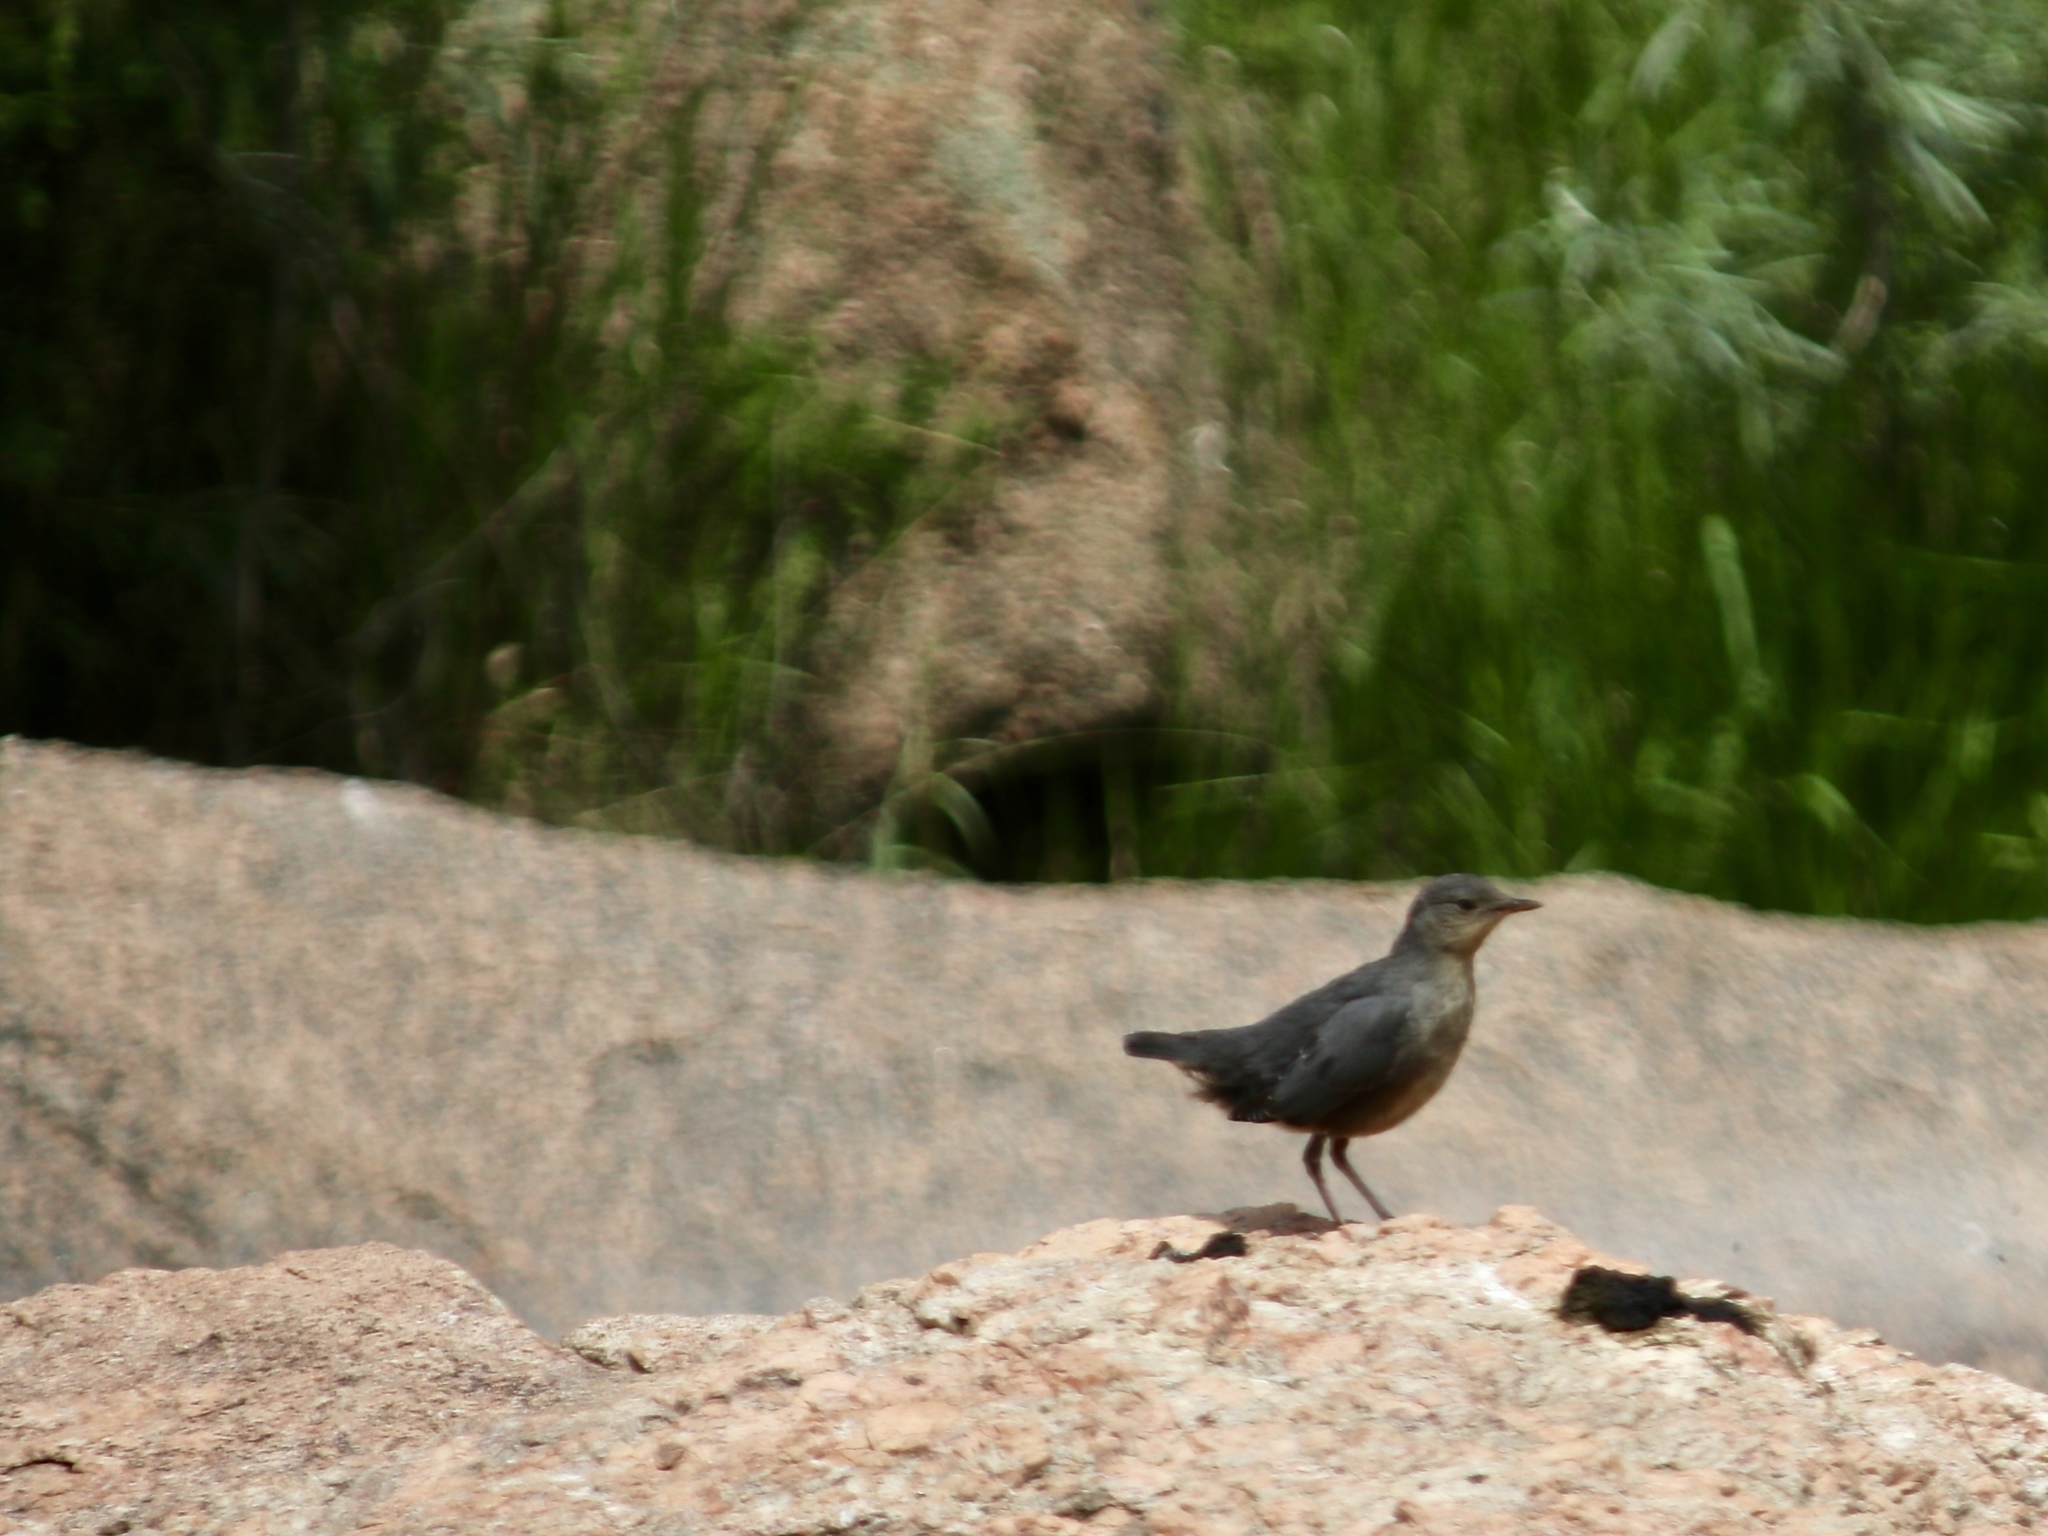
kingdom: Animalia
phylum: Chordata
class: Aves
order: Passeriformes
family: Cinclidae
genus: Cinclus
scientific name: Cinclus mexicanus
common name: American dipper
